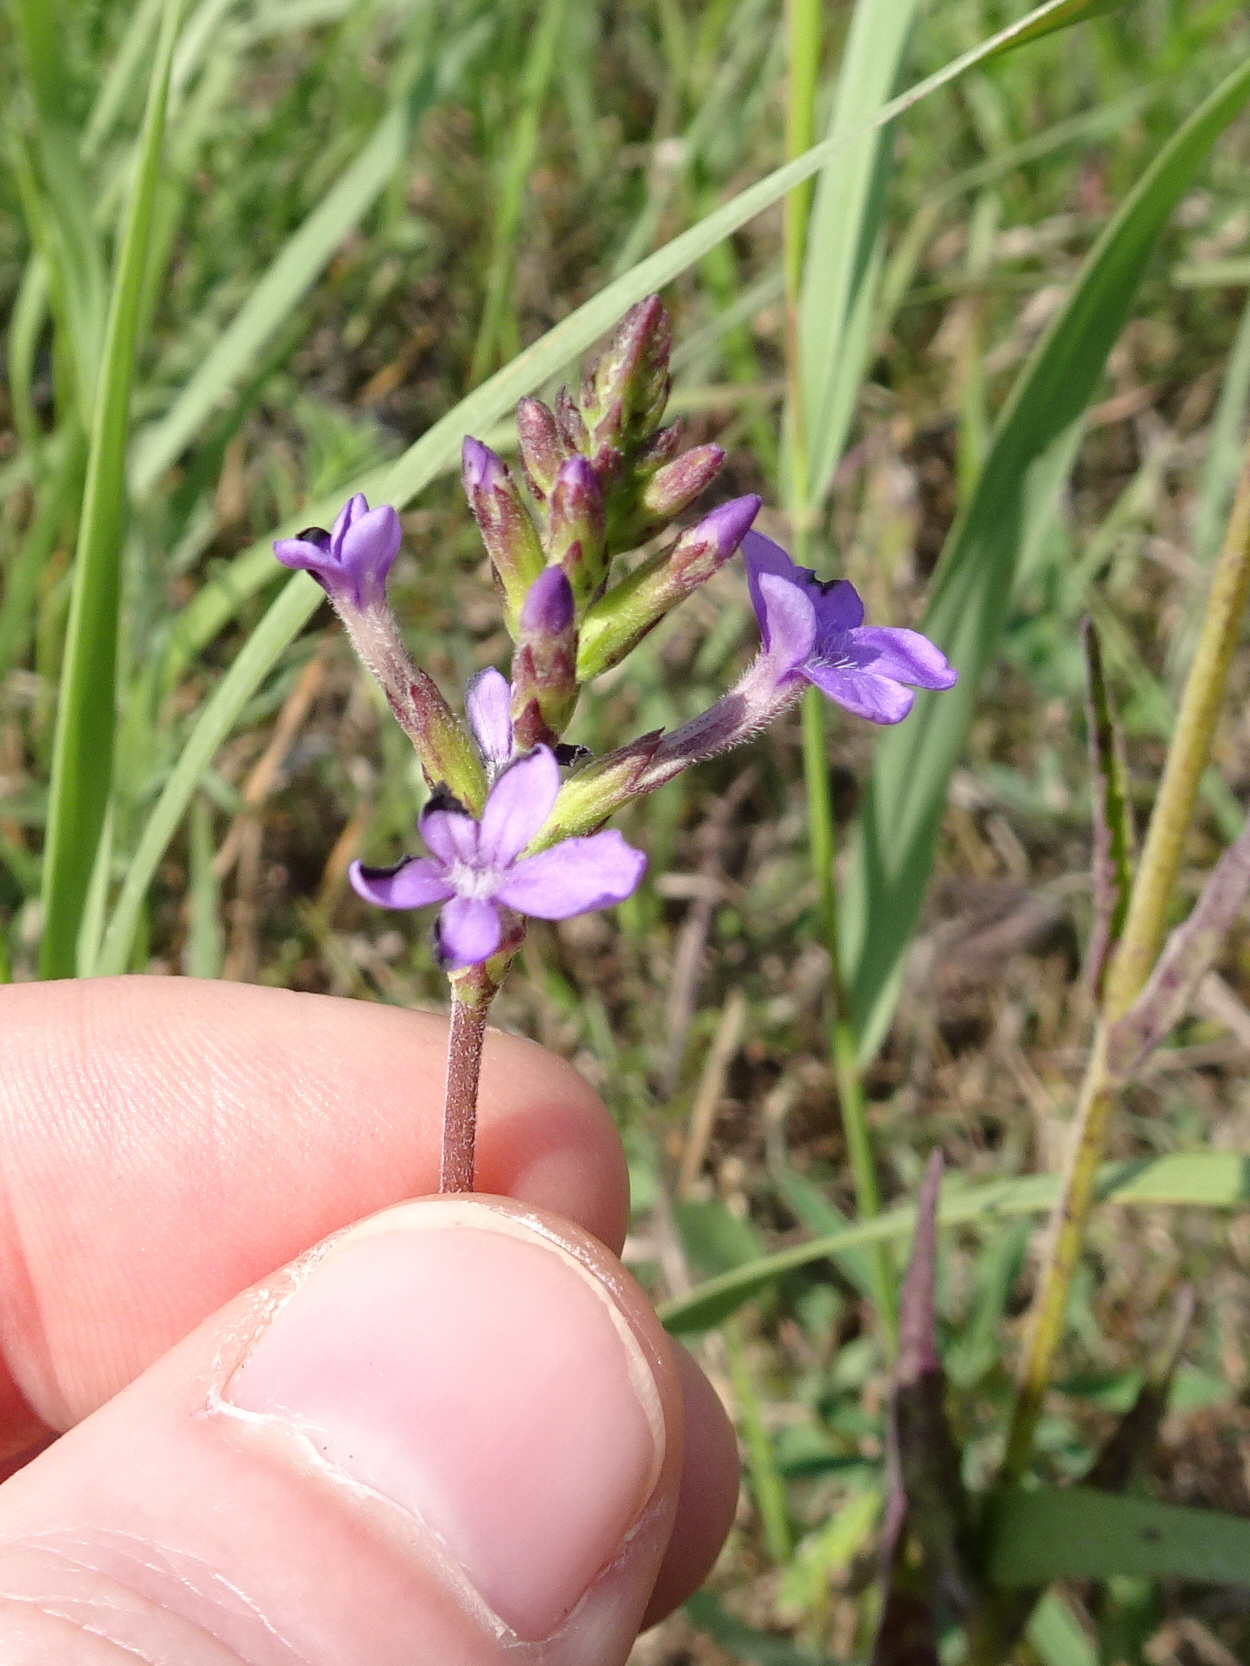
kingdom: Plantae
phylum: Tracheophyta
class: Magnoliopsida
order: Lamiales
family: Orobanchaceae
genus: Buchnera
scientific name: Buchnera americana
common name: American bluehearts
